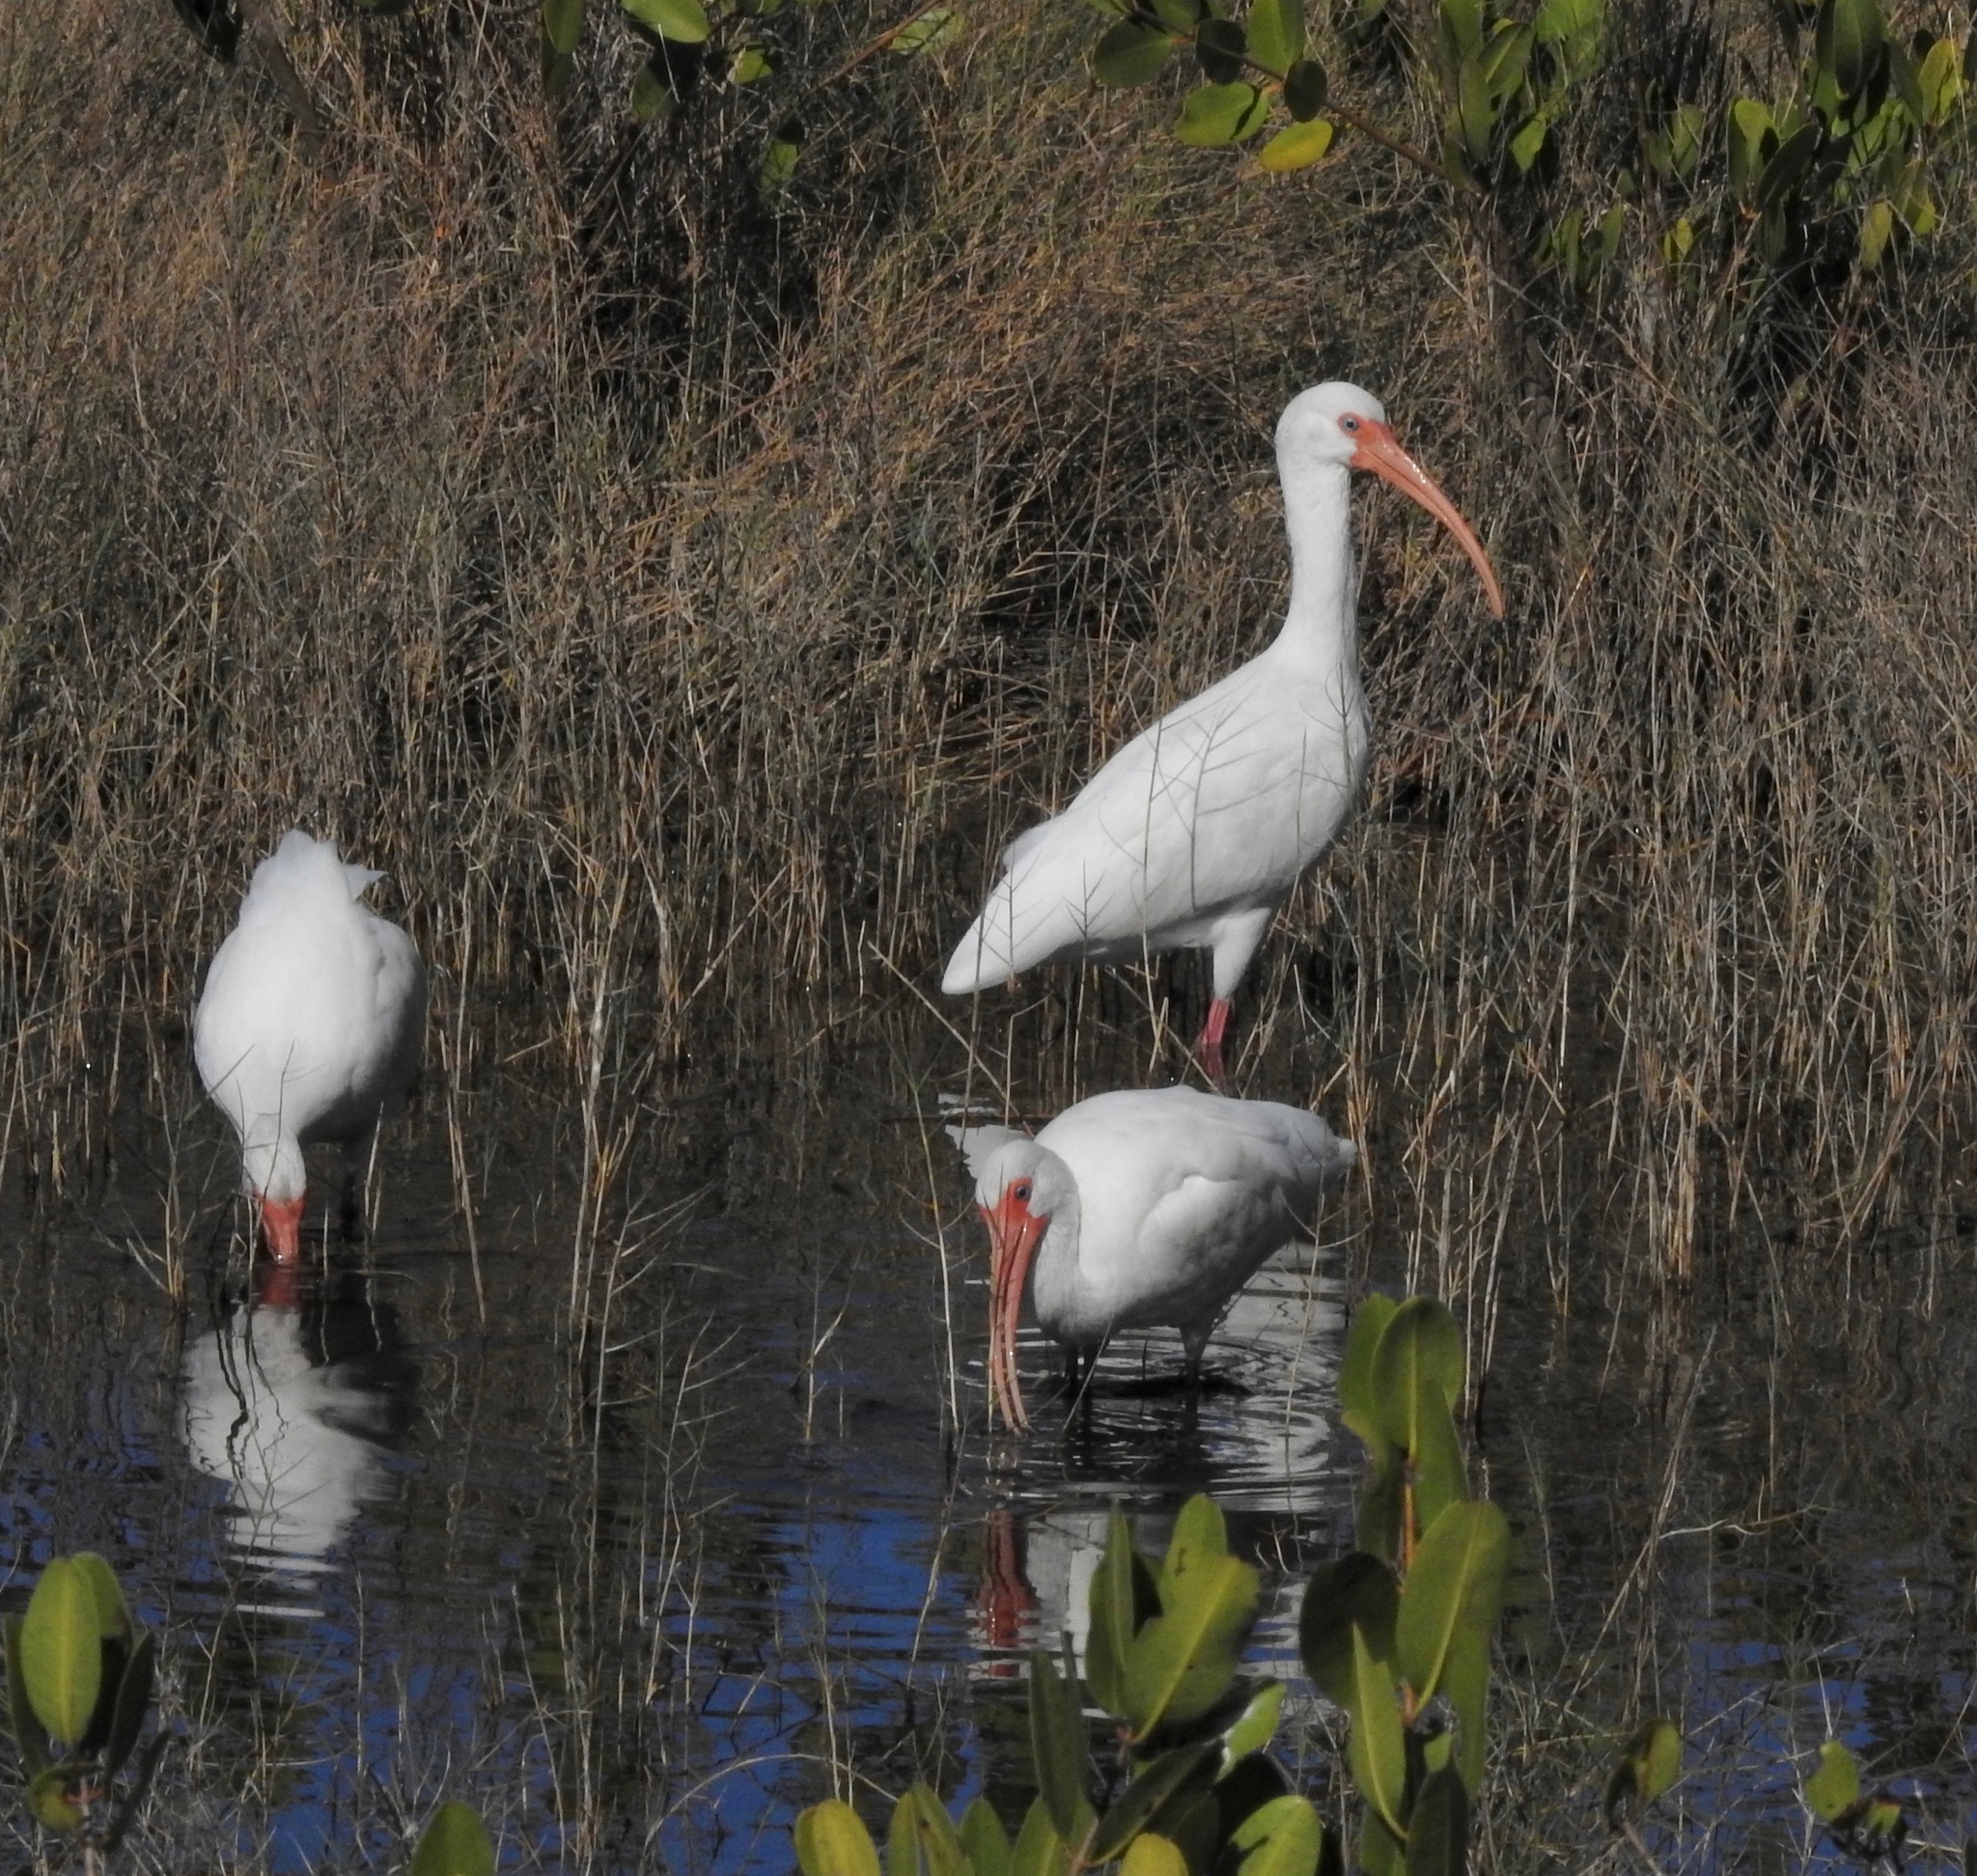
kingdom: Animalia
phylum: Chordata
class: Aves
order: Pelecaniformes
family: Threskiornithidae
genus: Eudocimus
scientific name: Eudocimus albus
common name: White ibis
